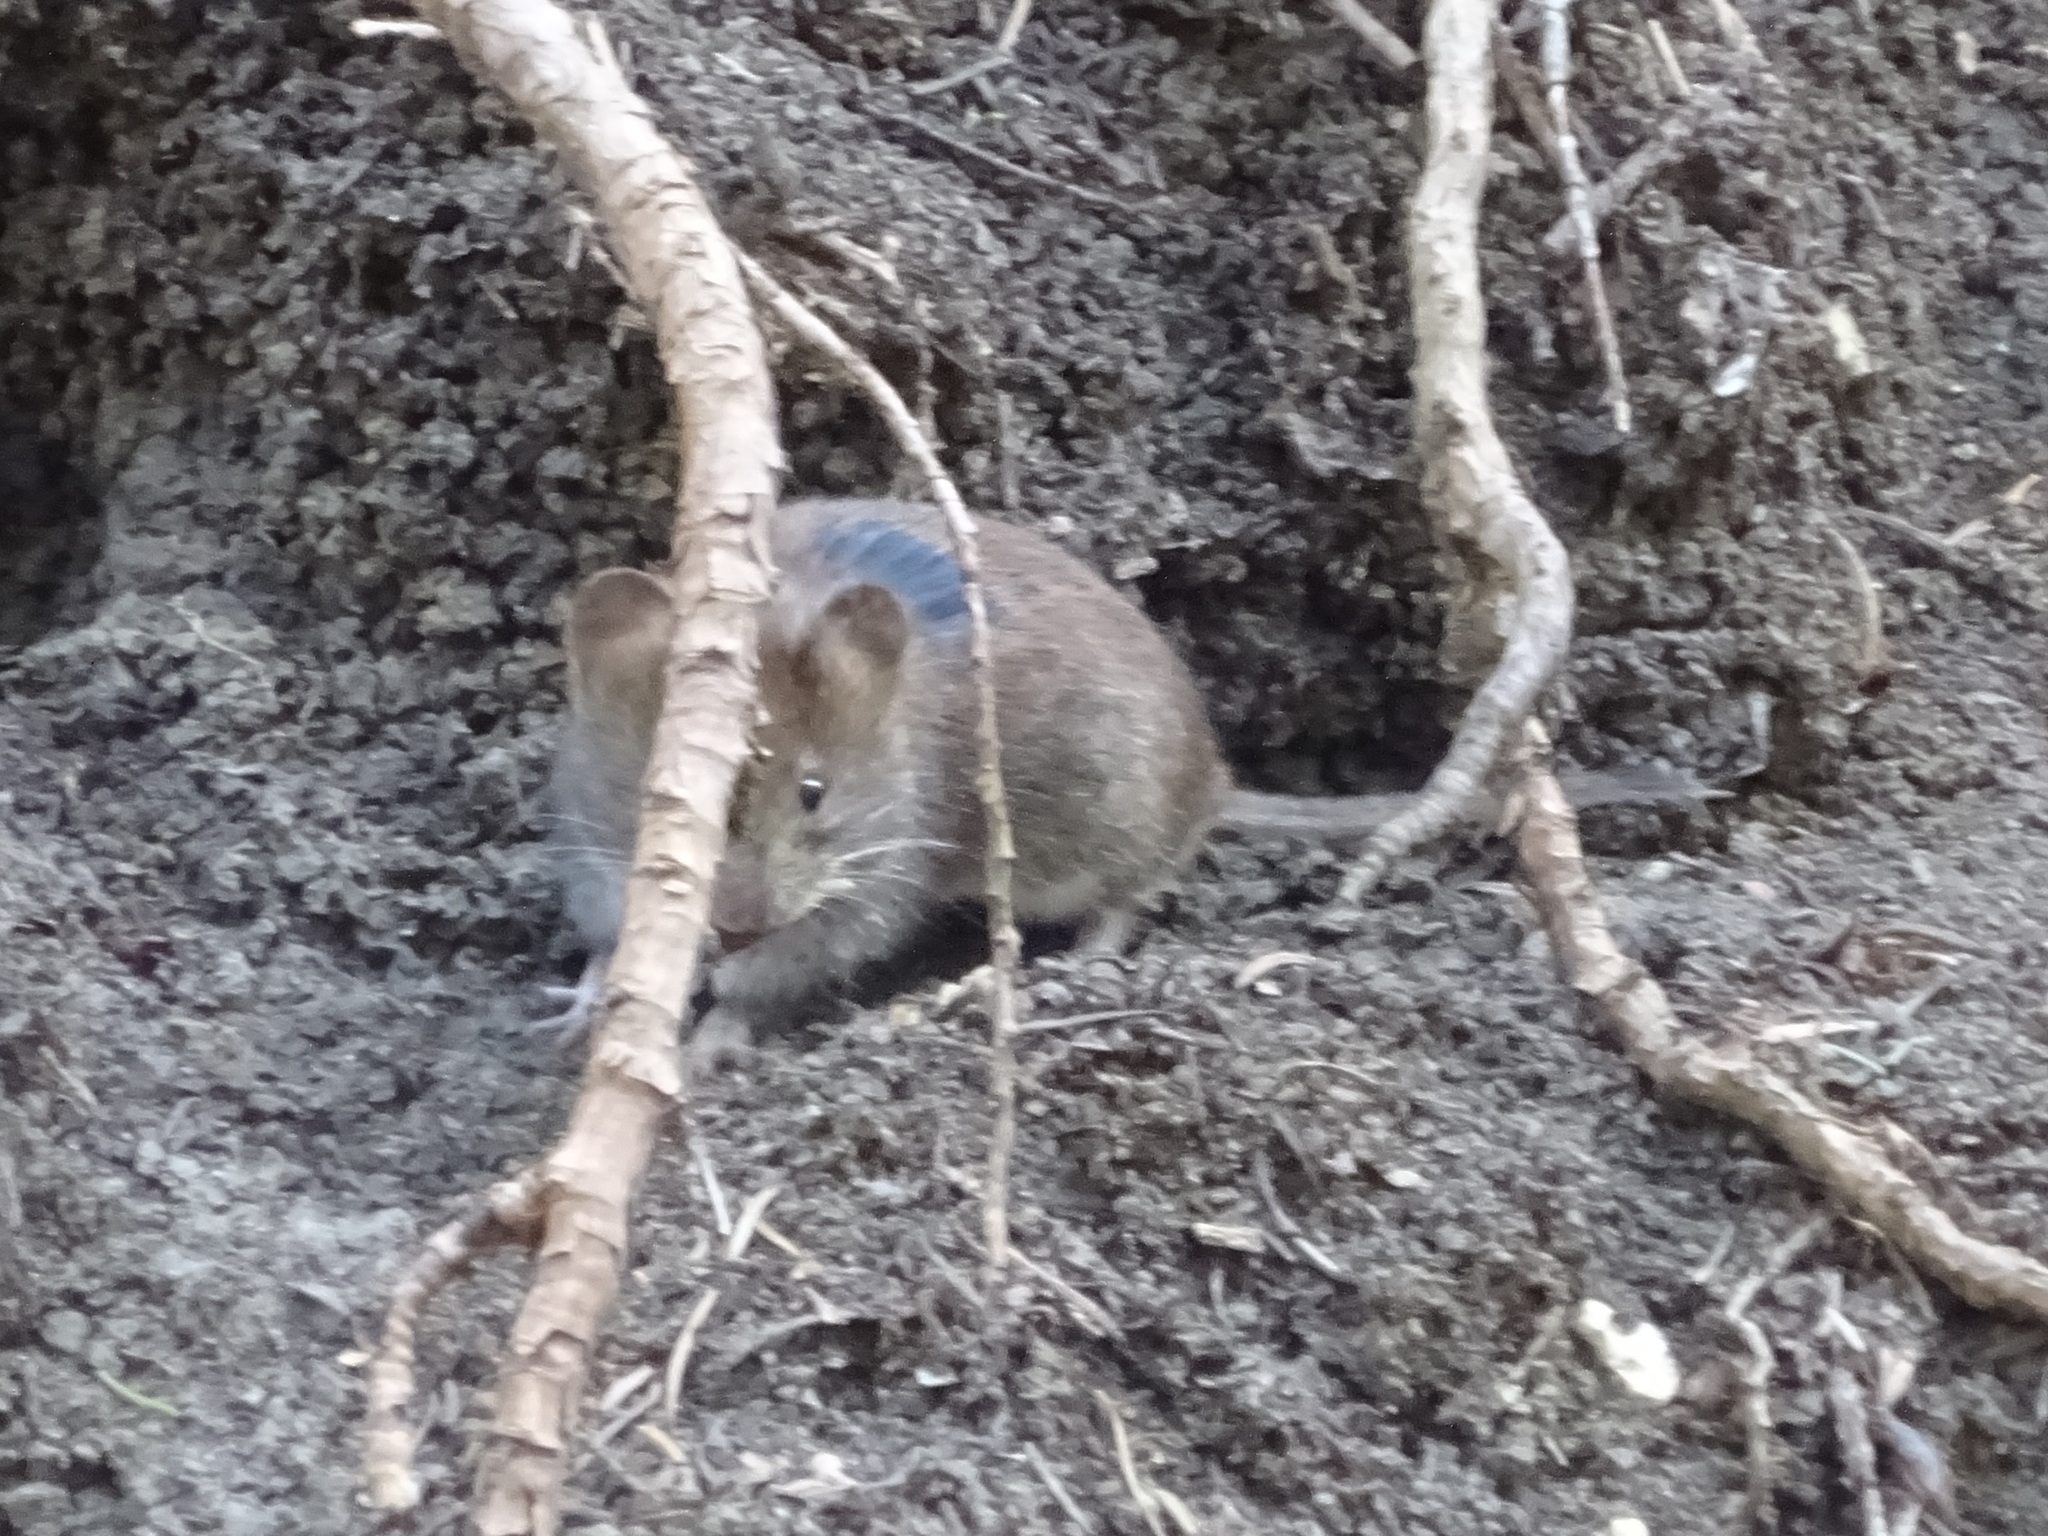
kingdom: Animalia
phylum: Chordata
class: Mammalia
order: Rodentia
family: Cricetidae
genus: Myodes
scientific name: Myodes glareolus
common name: Bank vole
